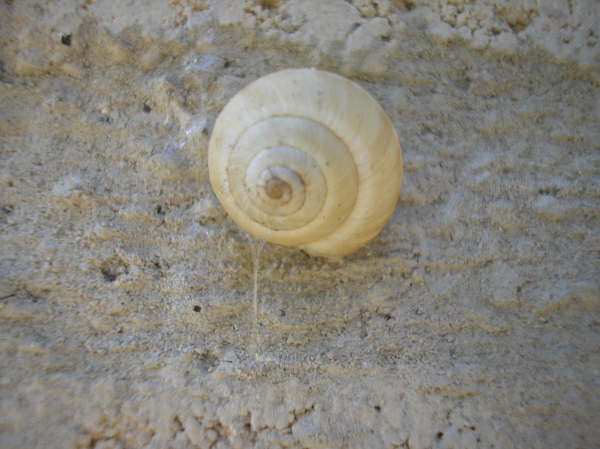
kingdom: Animalia
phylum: Mollusca
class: Gastropoda
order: Stylommatophora
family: Geomitridae
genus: Cernuella
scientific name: Cernuella virgata
